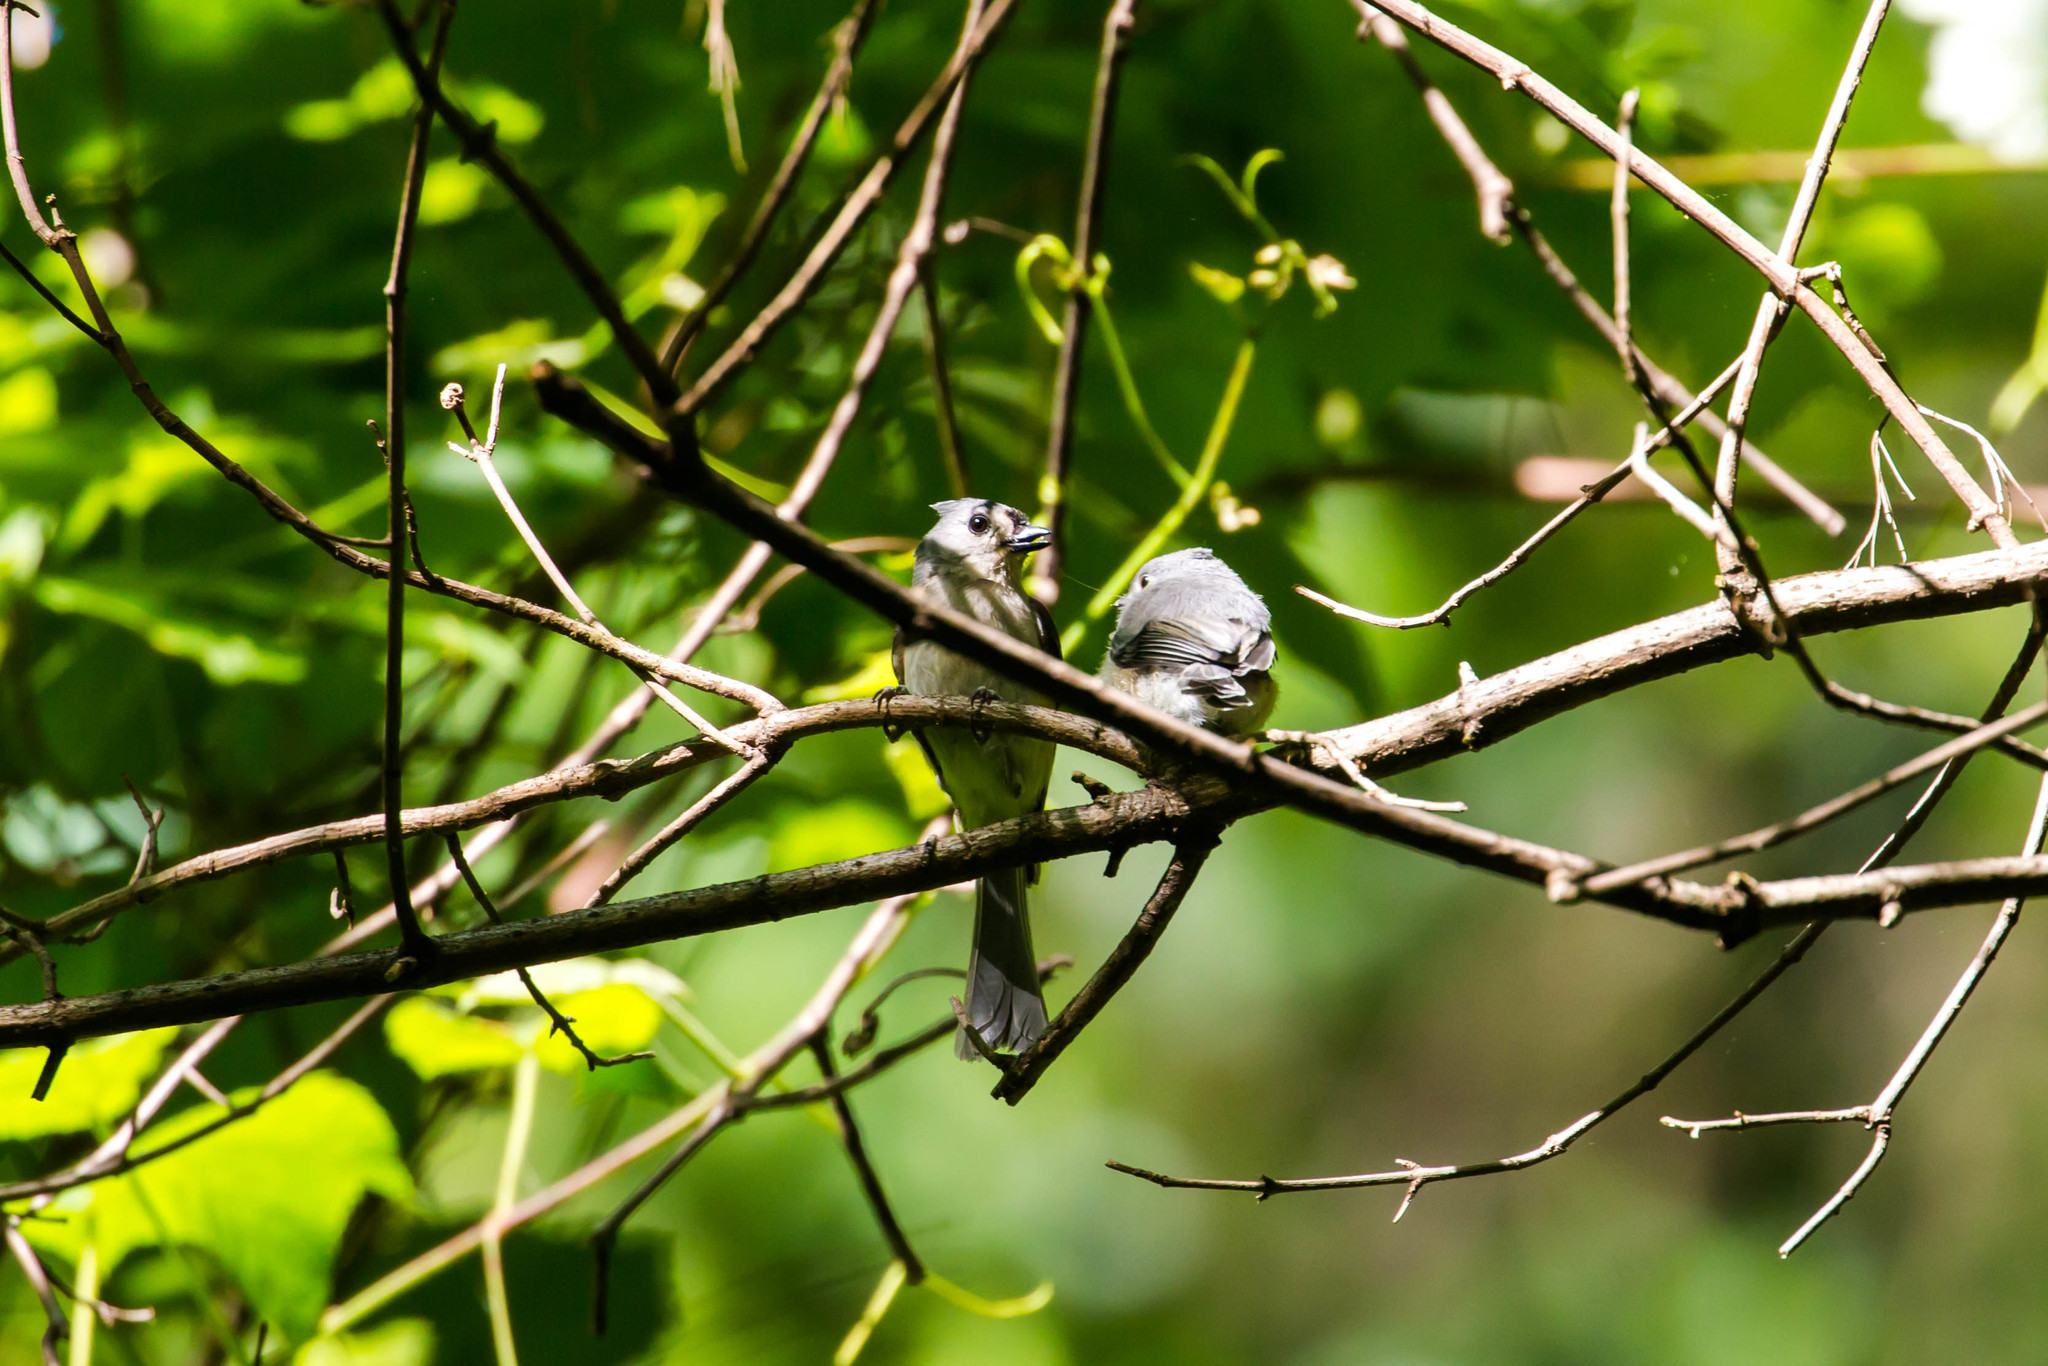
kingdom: Animalia
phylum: Chordata
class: Aves
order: Passeriformes
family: Paridae
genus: Baeolophus
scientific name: Baeolophus bicolor
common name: Tufted titmouse
